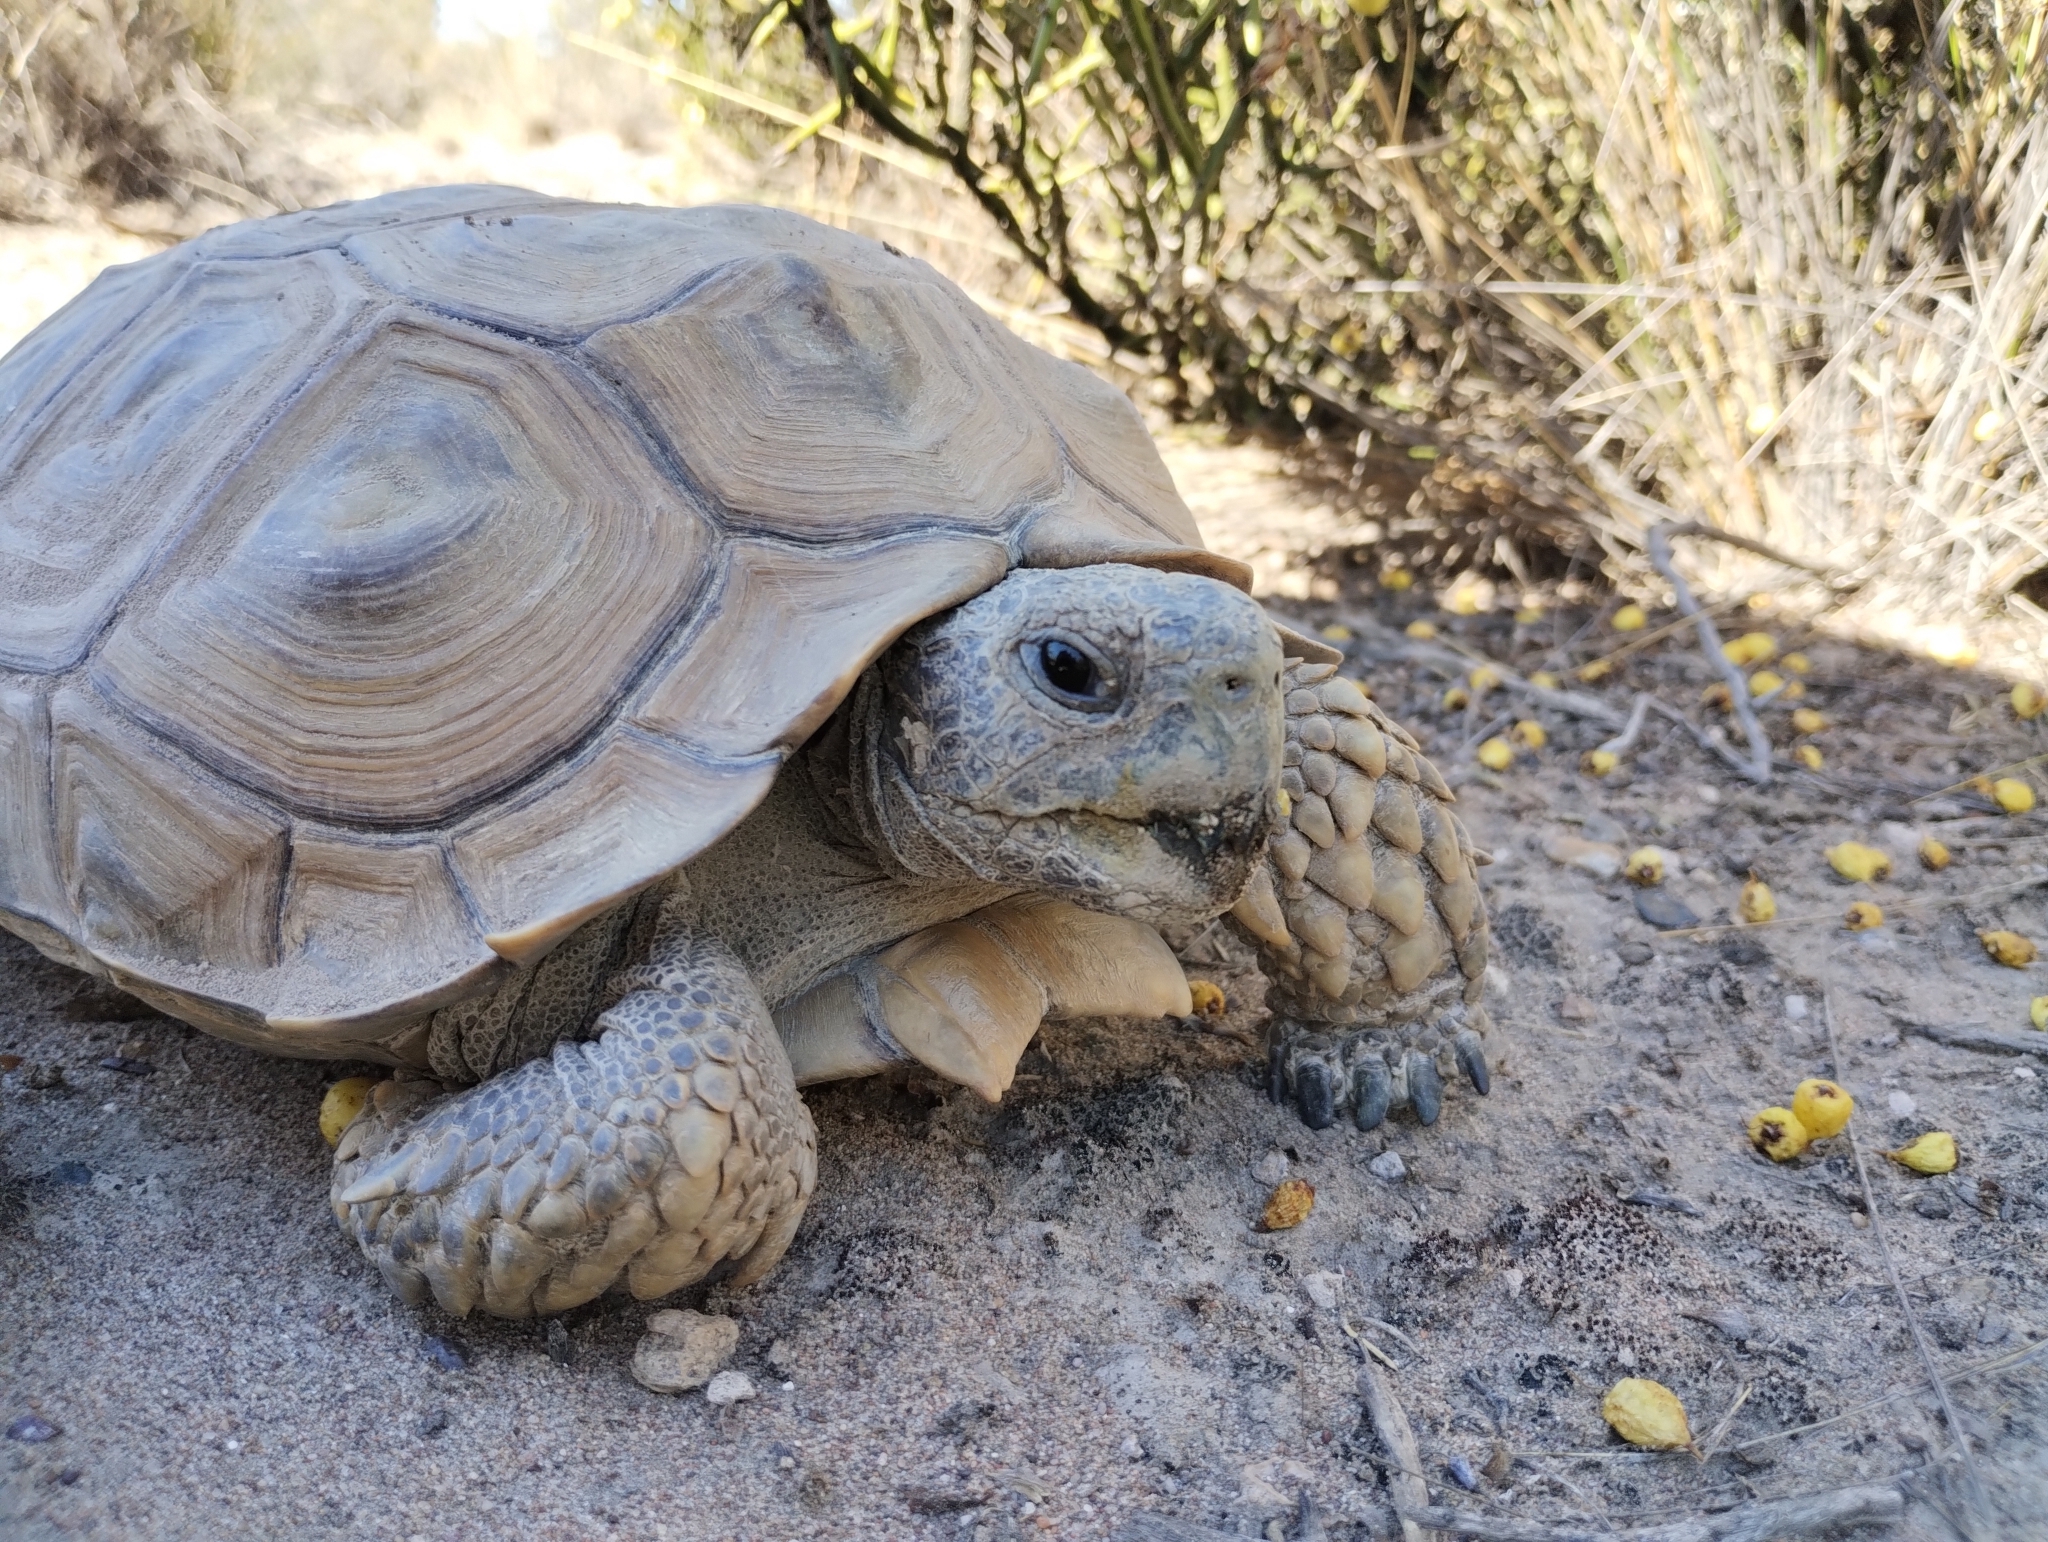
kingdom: Animalia
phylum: Chordata
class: Testudines
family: Testudinidae
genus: Chelonoidis
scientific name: Chelonoidis chilensis
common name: Chaco tortoise
